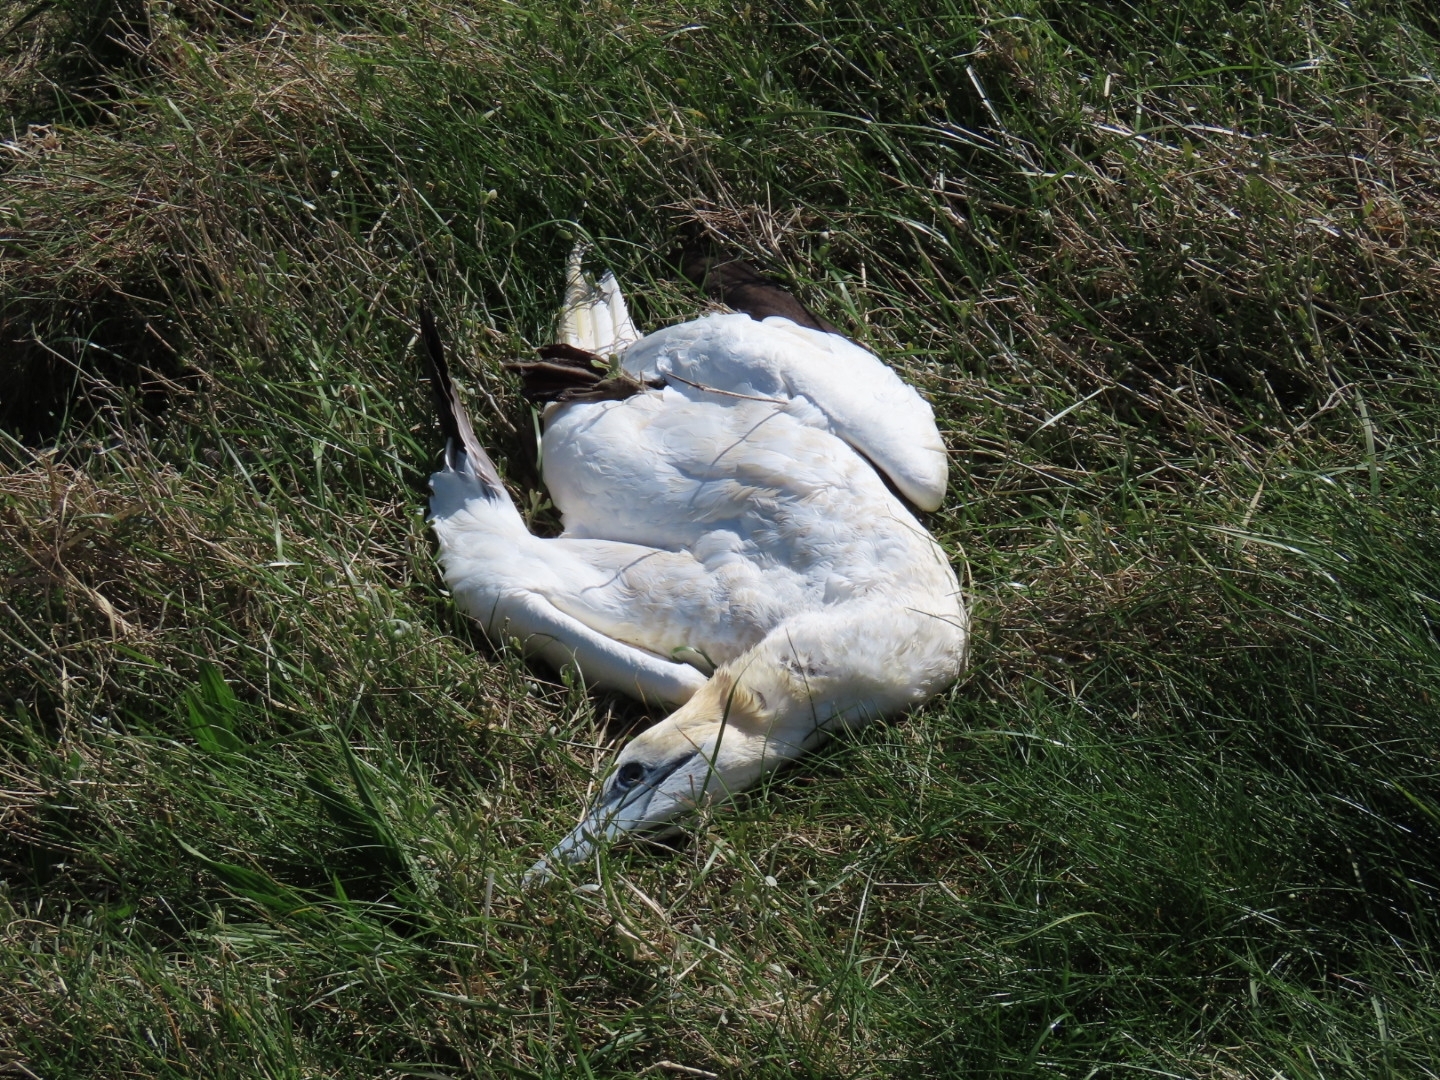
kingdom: Animalia
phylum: Chordata
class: Aves
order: Suliformes
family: Sulidae
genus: Morus
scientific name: Morus bassanus
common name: Northern gannet
